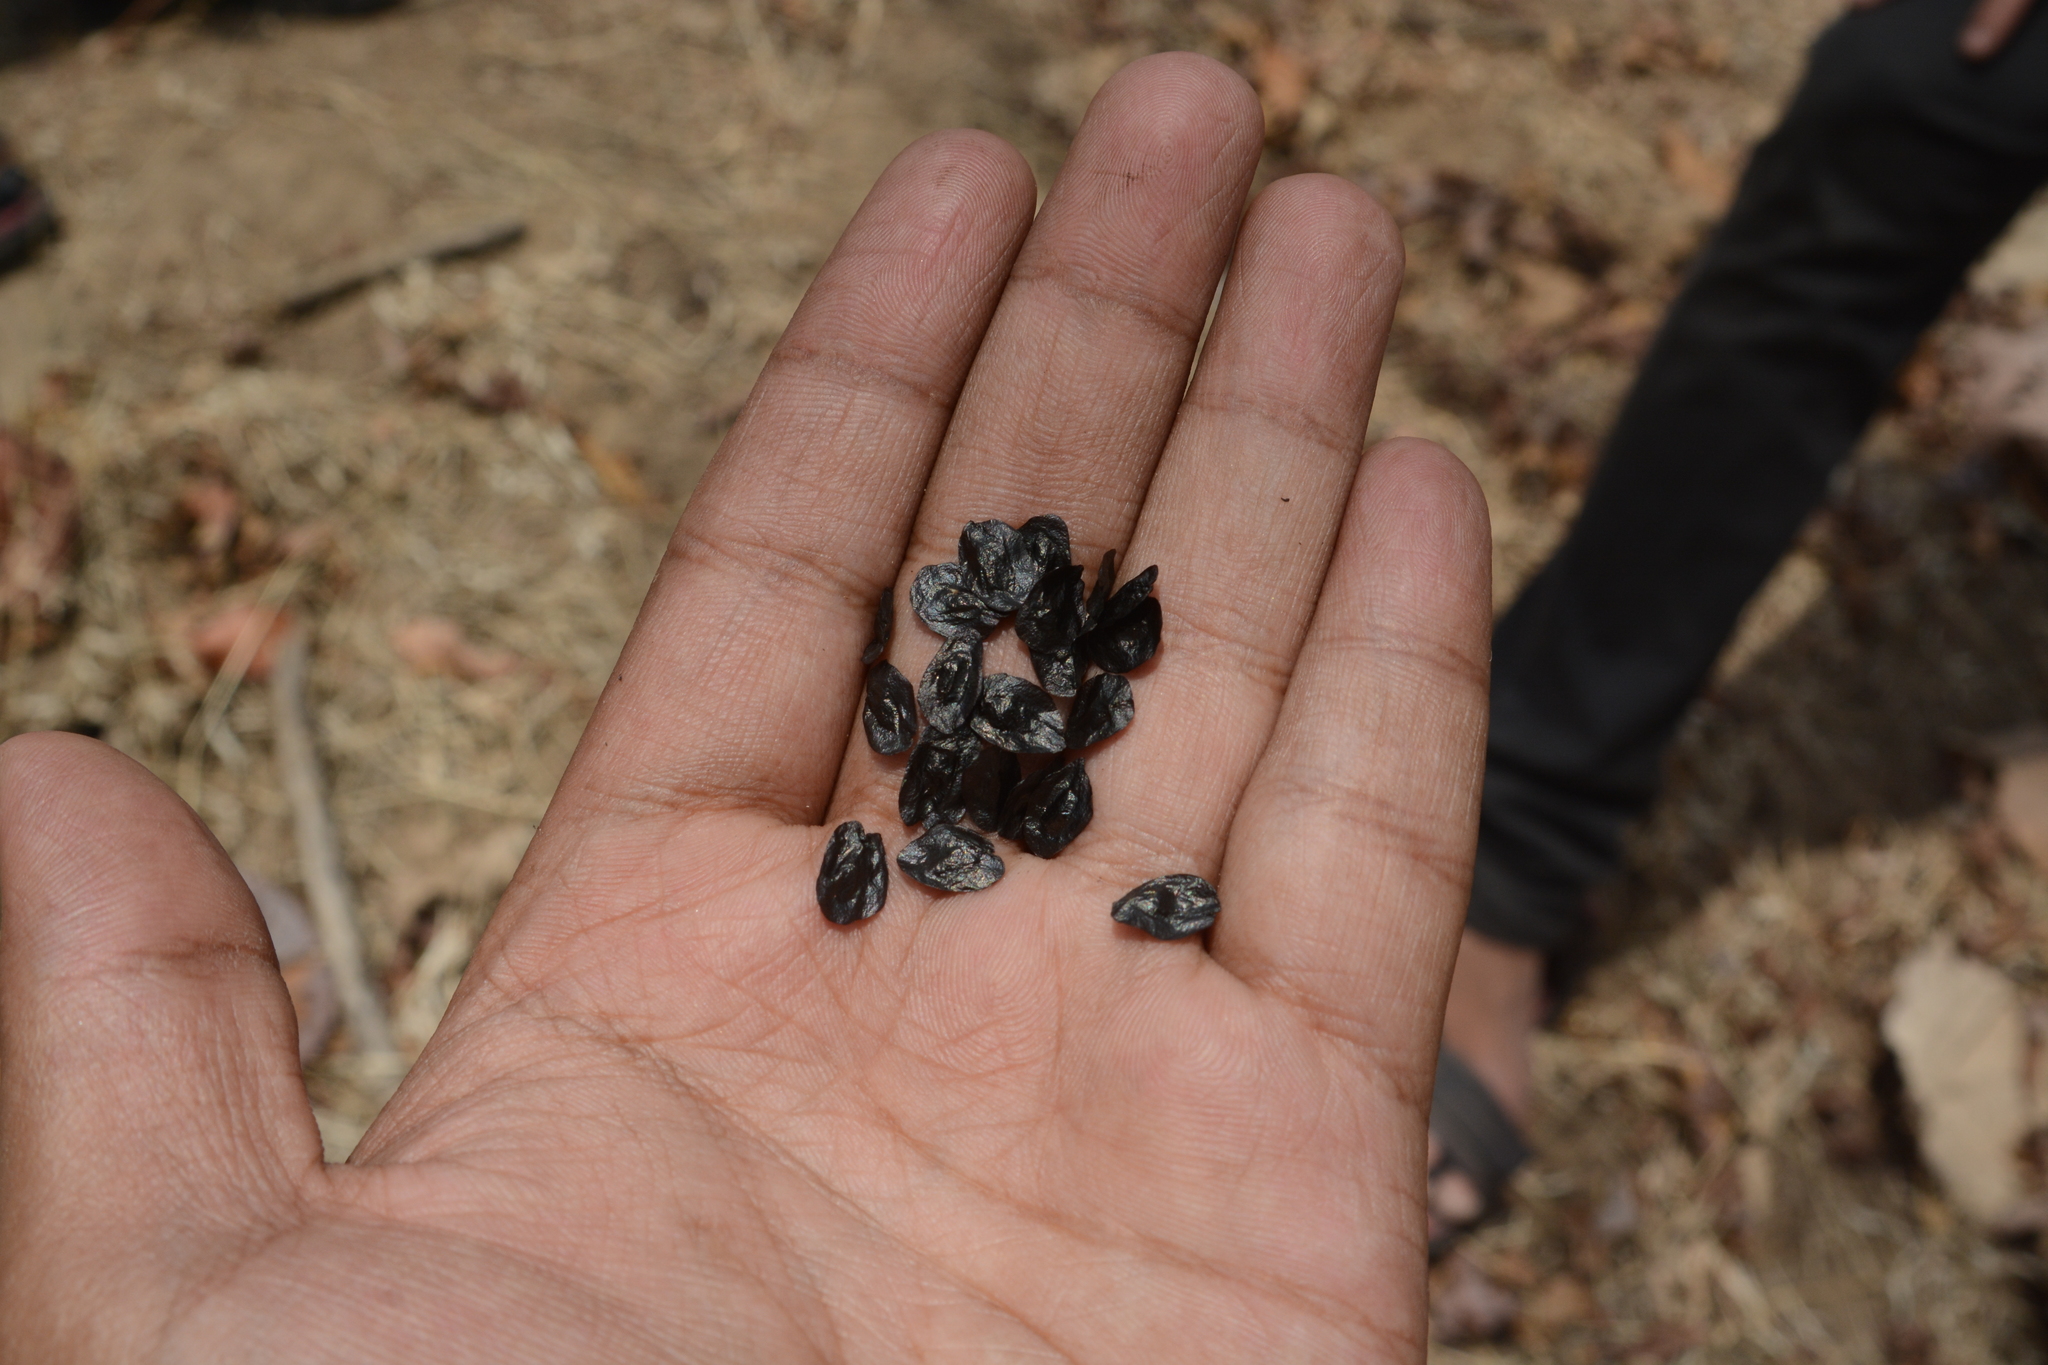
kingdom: Plantae
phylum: Tracheophyta
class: Liliopsida
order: Asparagales
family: Asparagaceae
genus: Drimia
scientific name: Drimia indica
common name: Indian-squill
